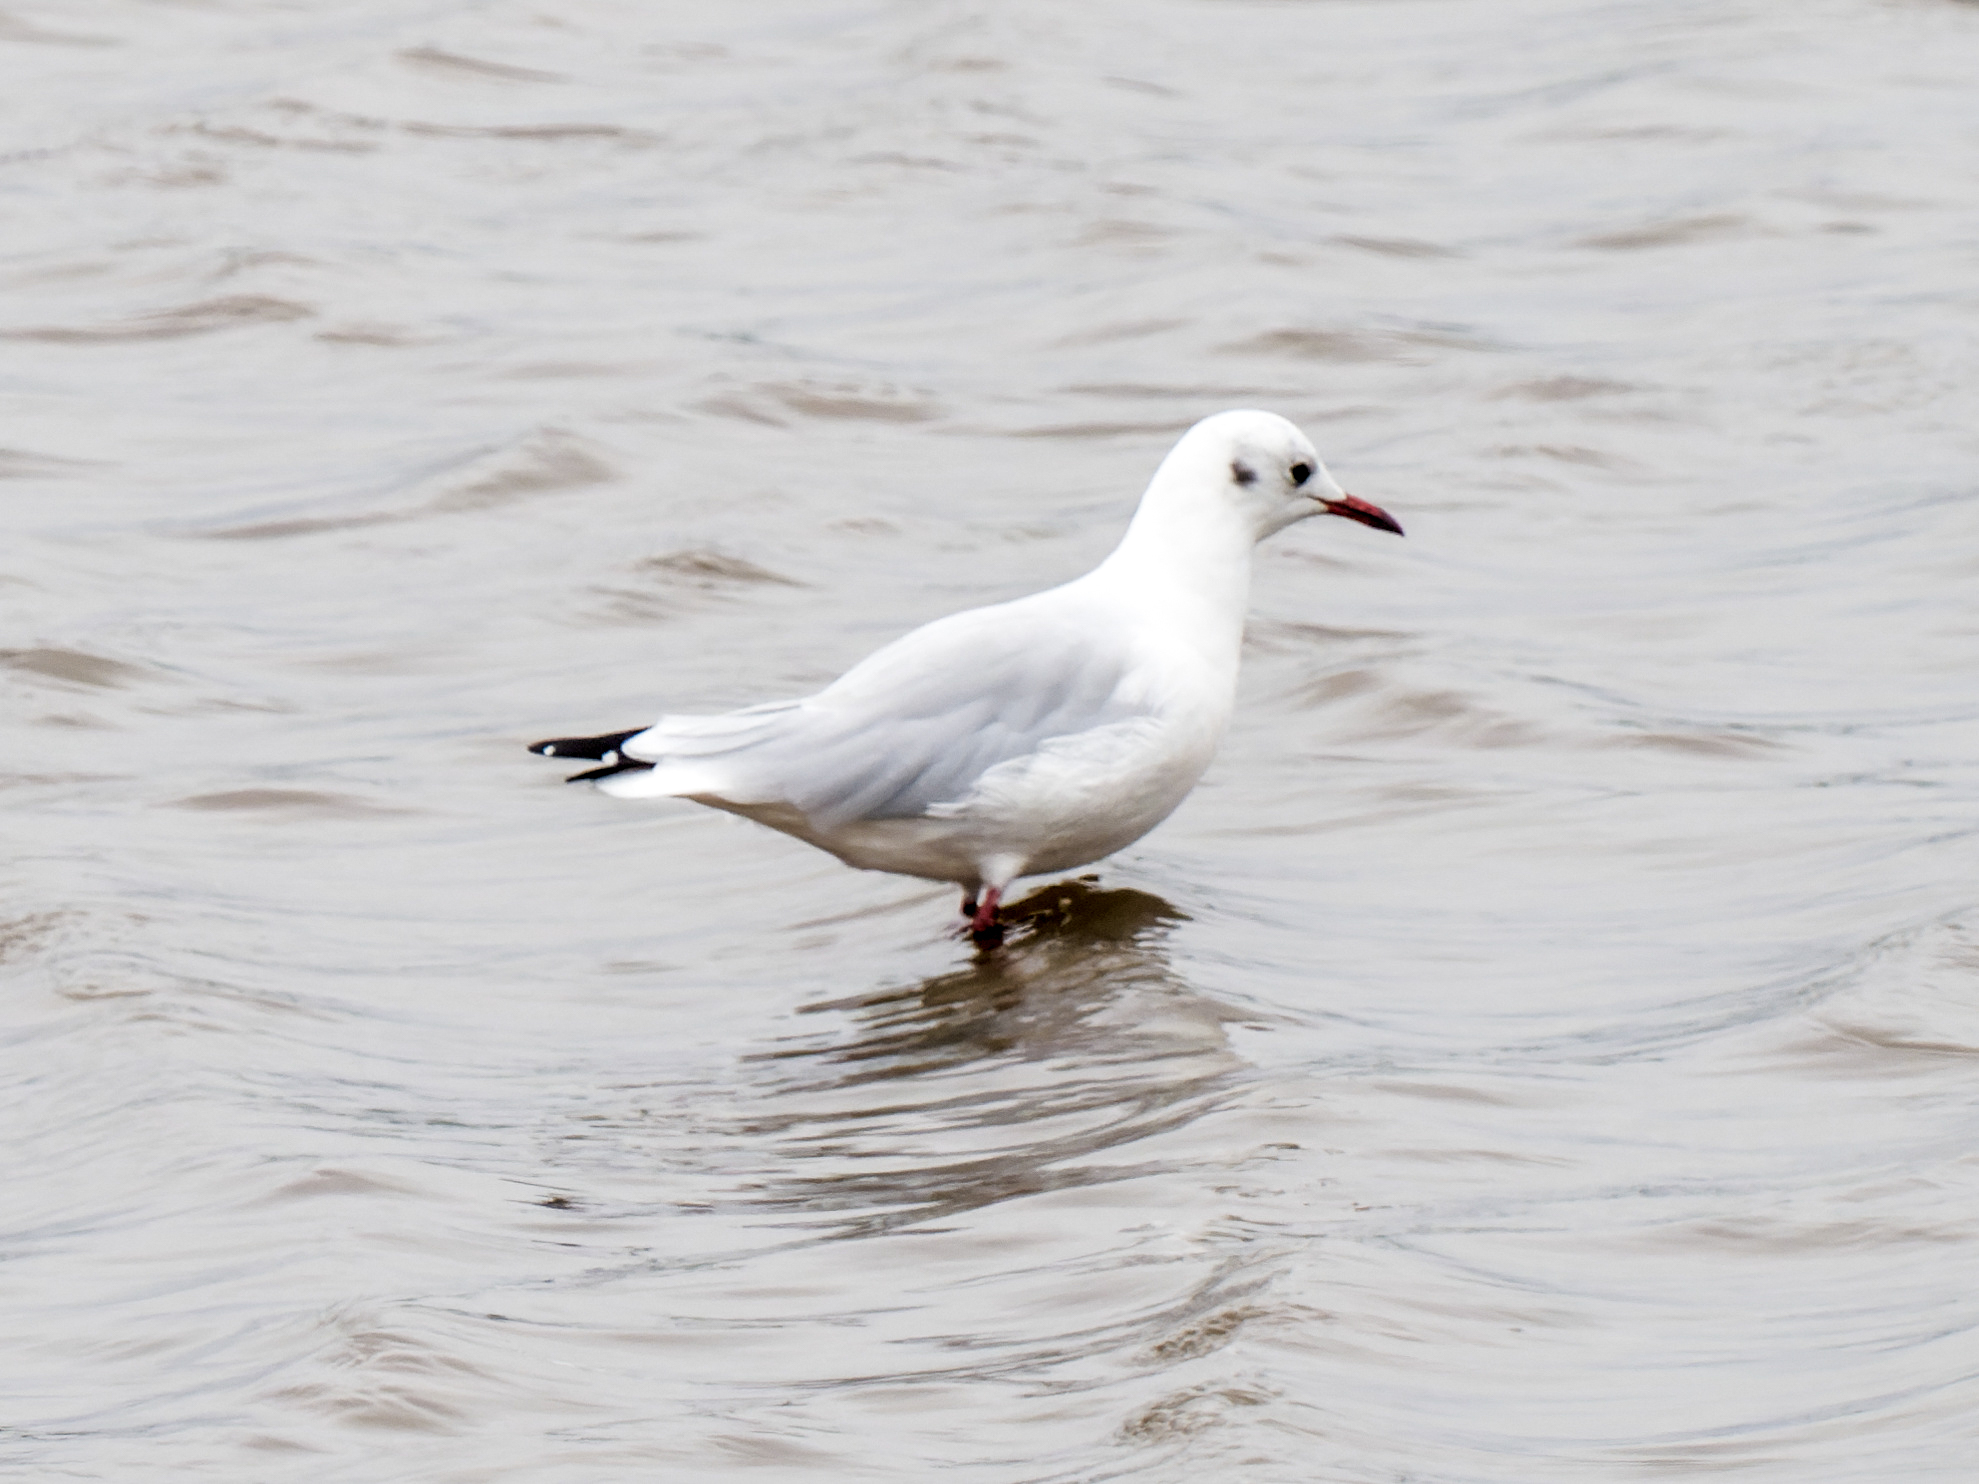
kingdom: Animalia
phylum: Chordata
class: Aves
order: Charadriiformes
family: Laridae
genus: Chroicocephalus
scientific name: Chroicocephalus ridibundus
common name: Black-headed gull
